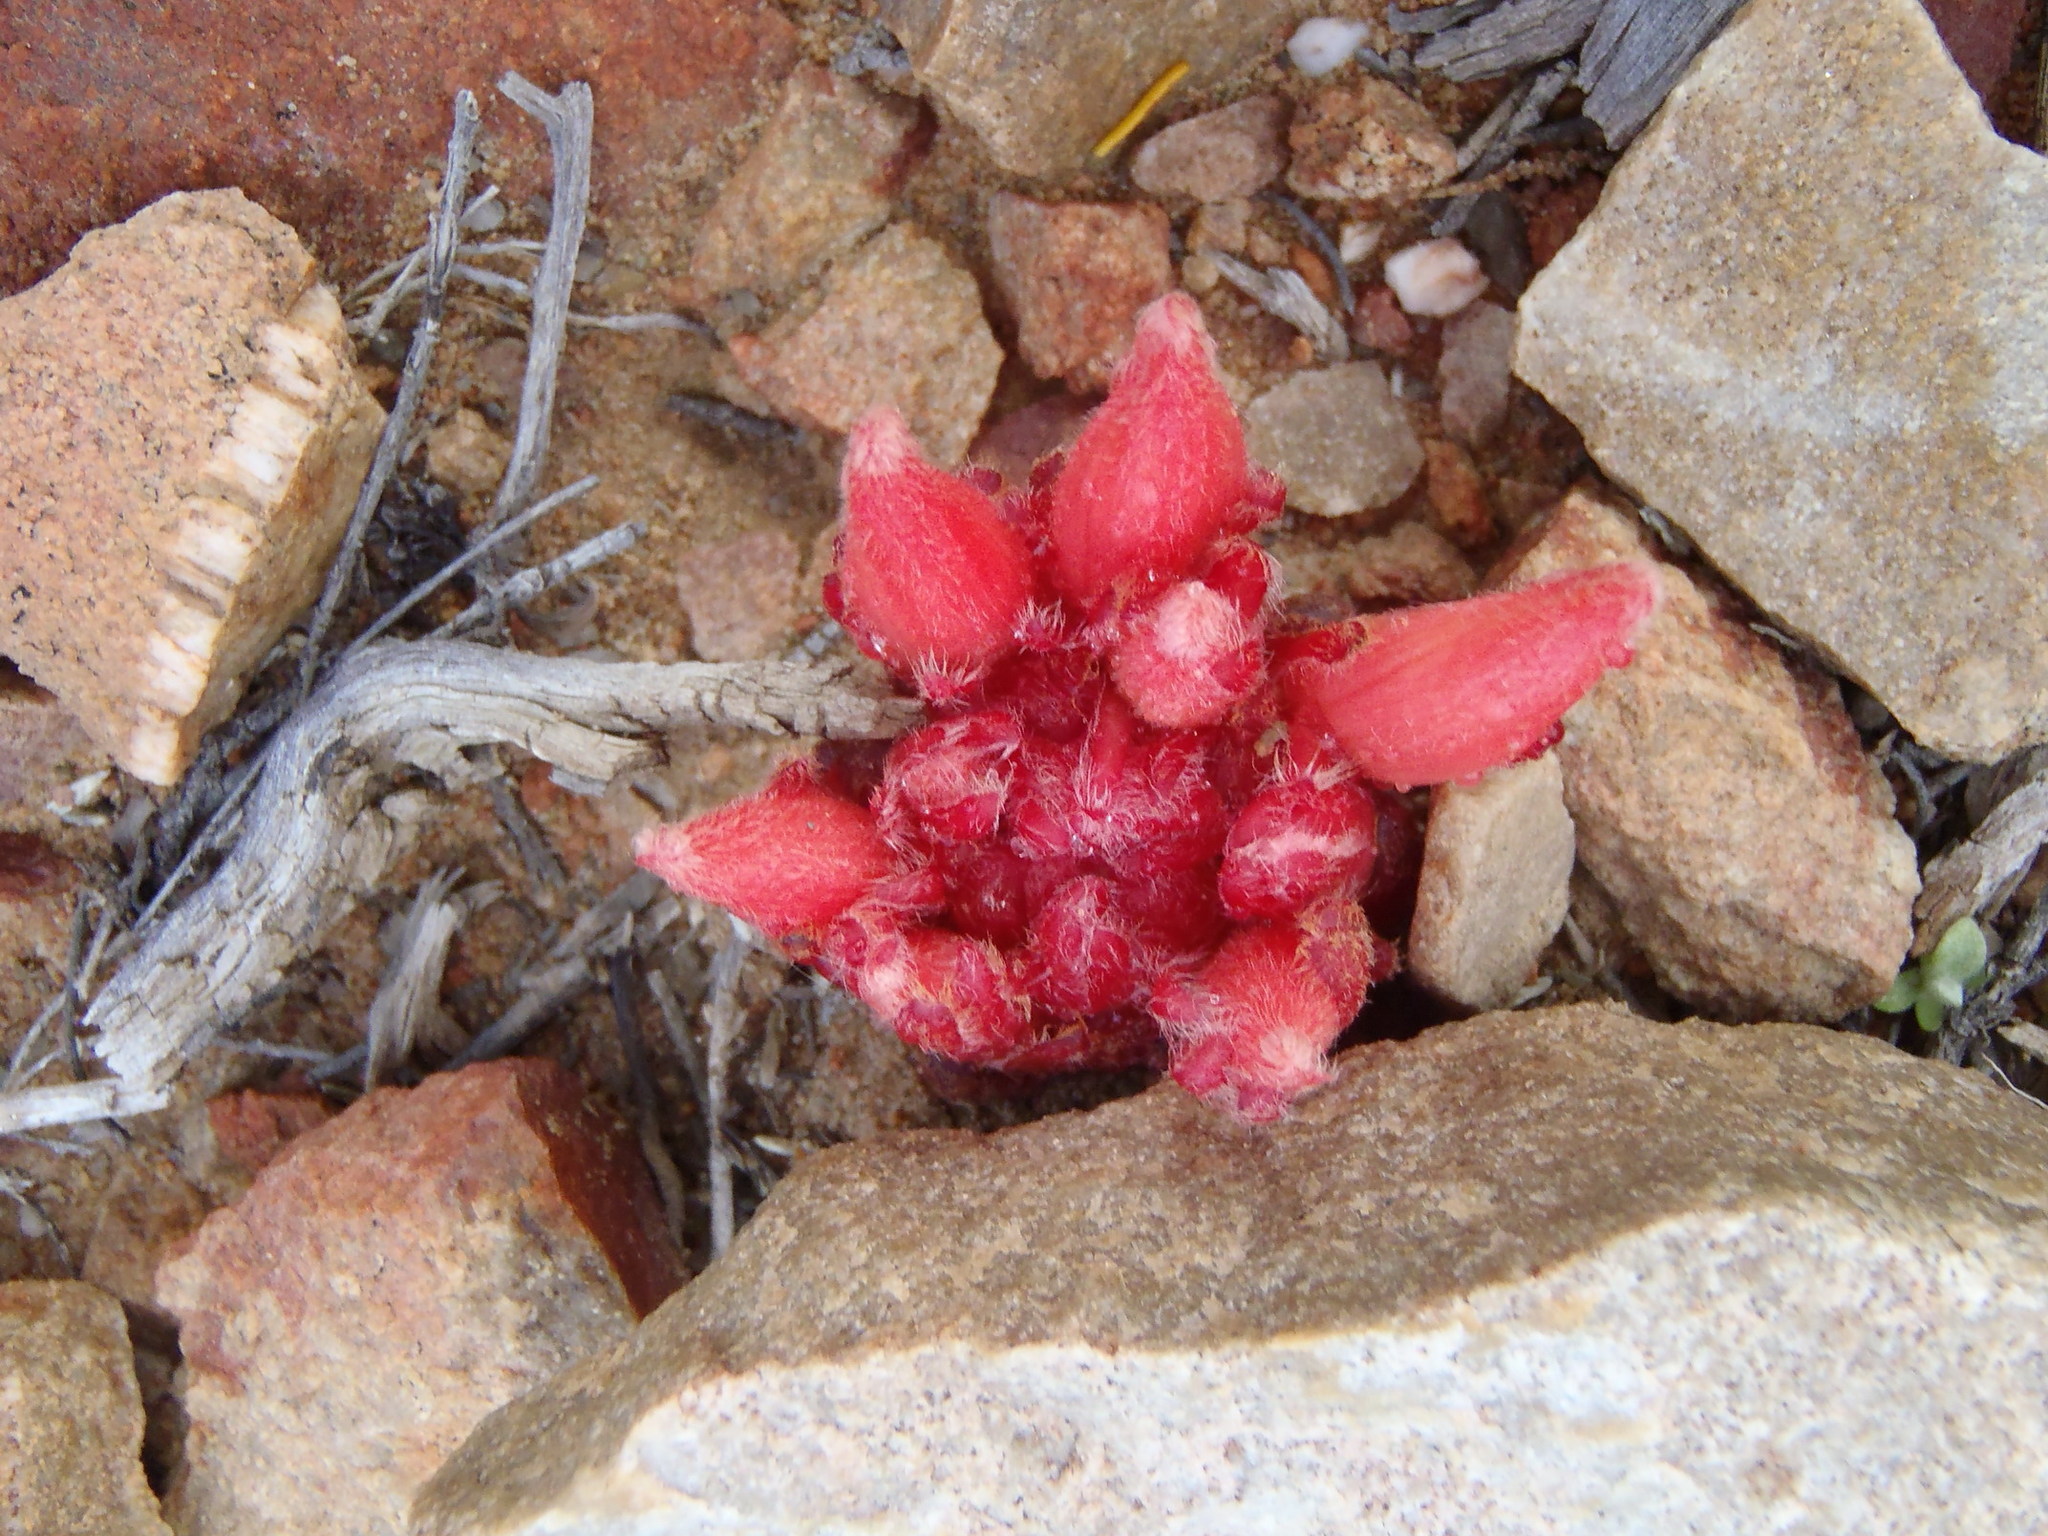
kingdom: Plantae
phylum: Tracheophyta
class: Magnoliopsida
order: Lamiales
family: Orobanchaceae
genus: Hyobanche
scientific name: Hyobanche sanguinea
